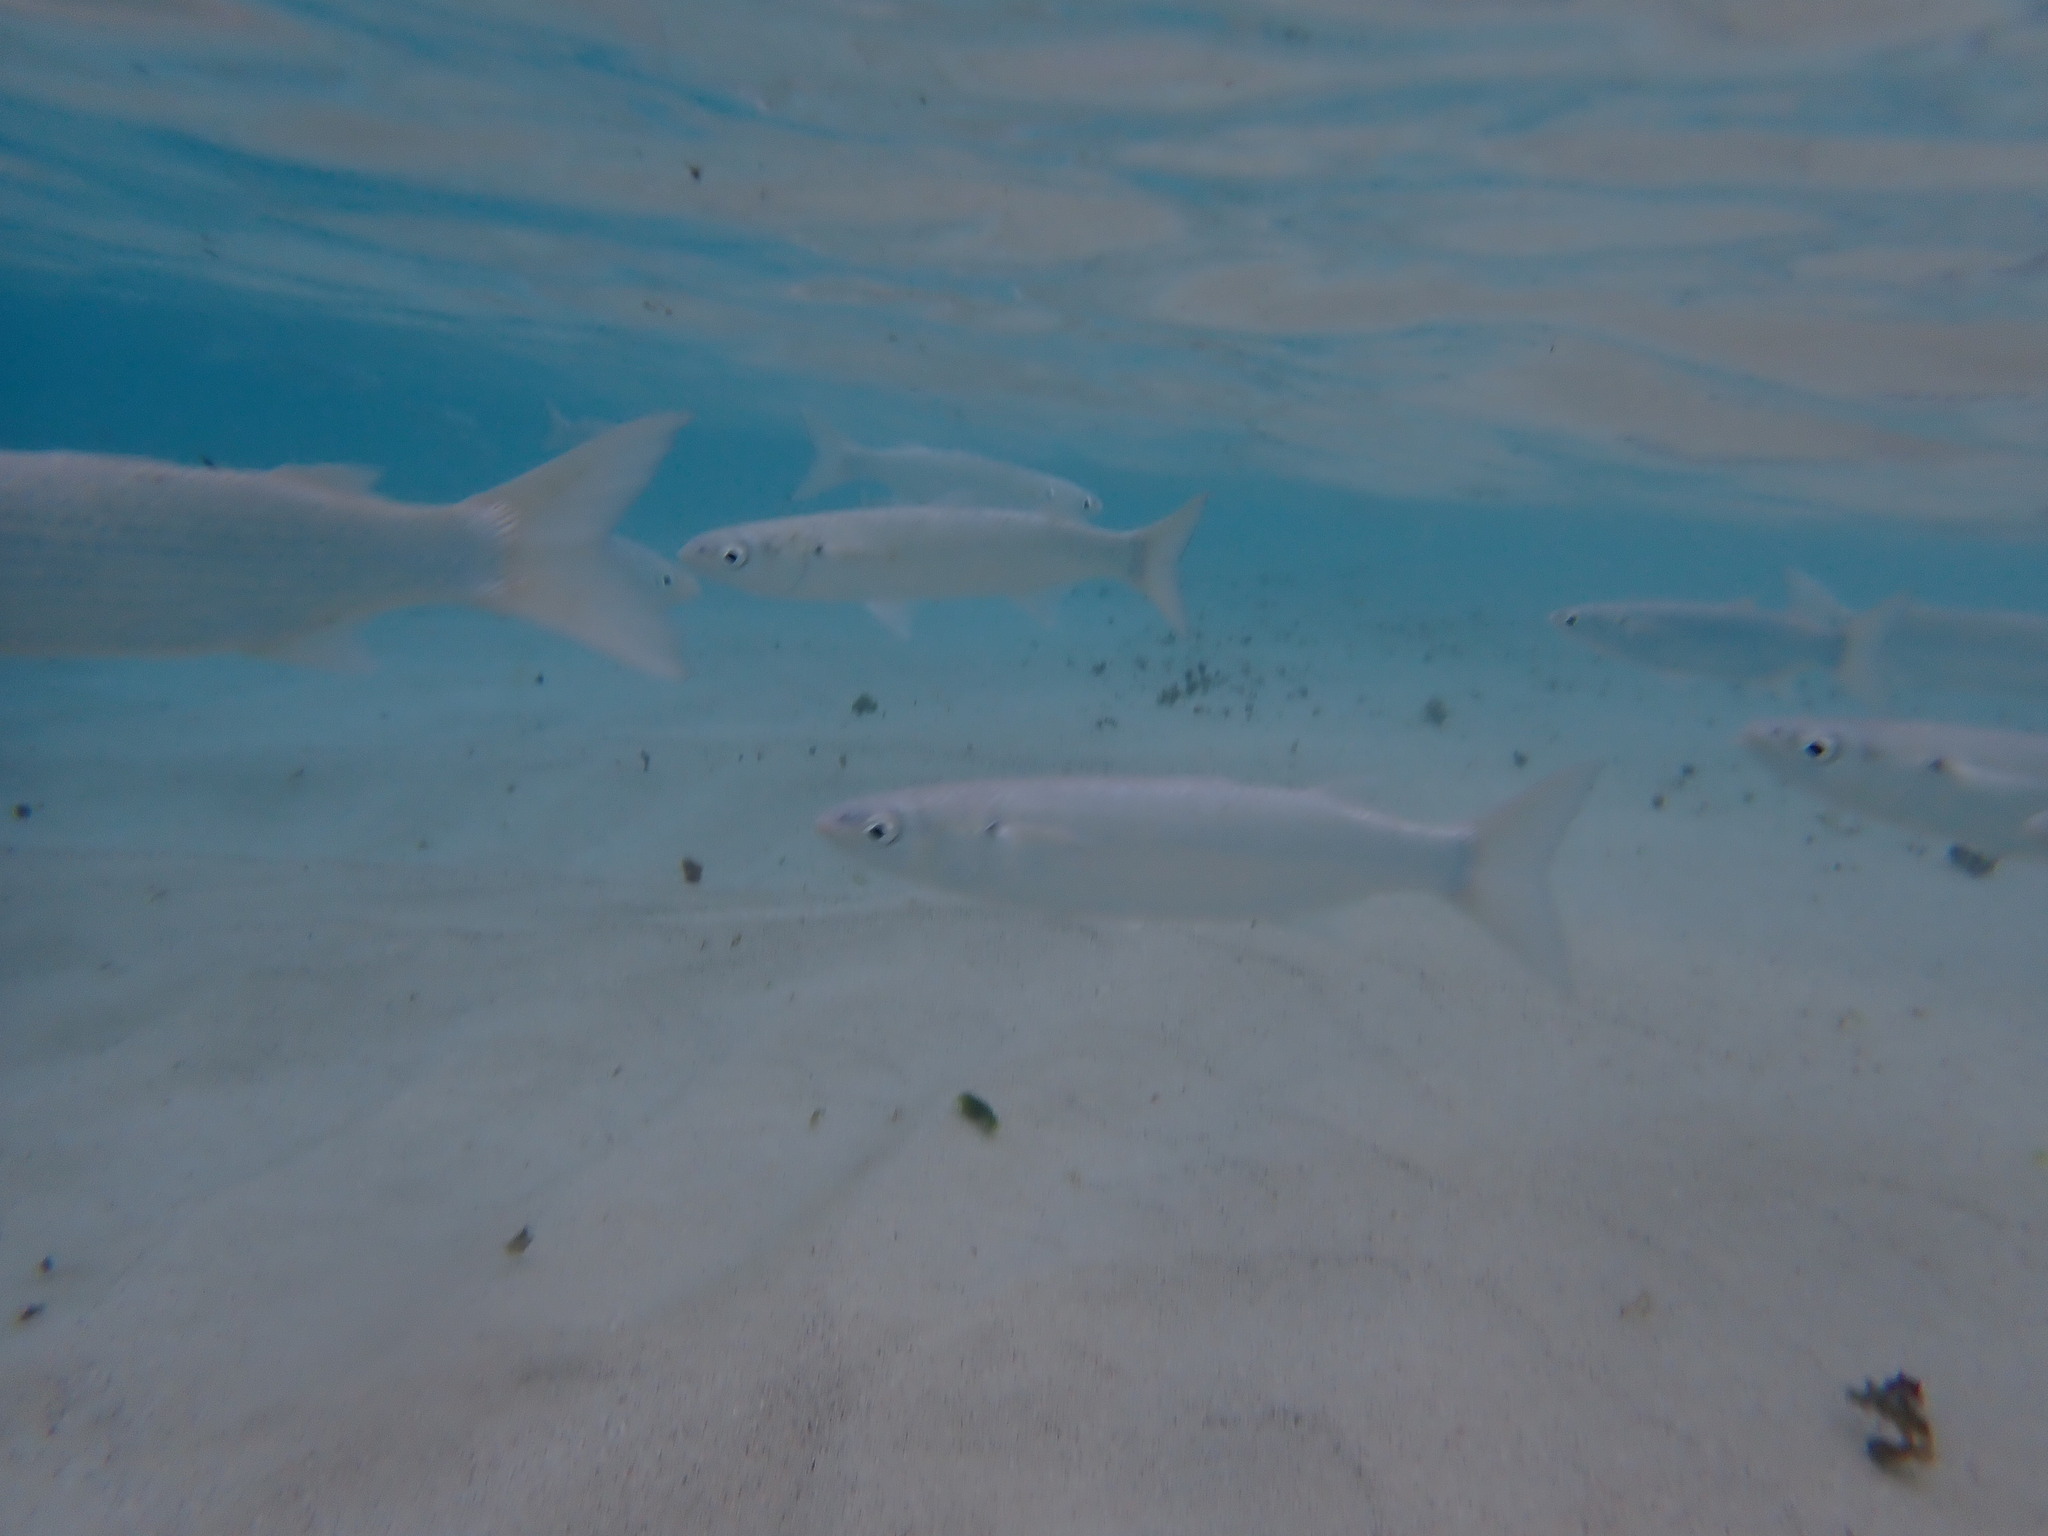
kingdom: Animalia
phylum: Chordata
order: Mugiliformes
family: Mugilidae
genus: Myxus
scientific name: Myxus elongatus
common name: Sand grey mullet
